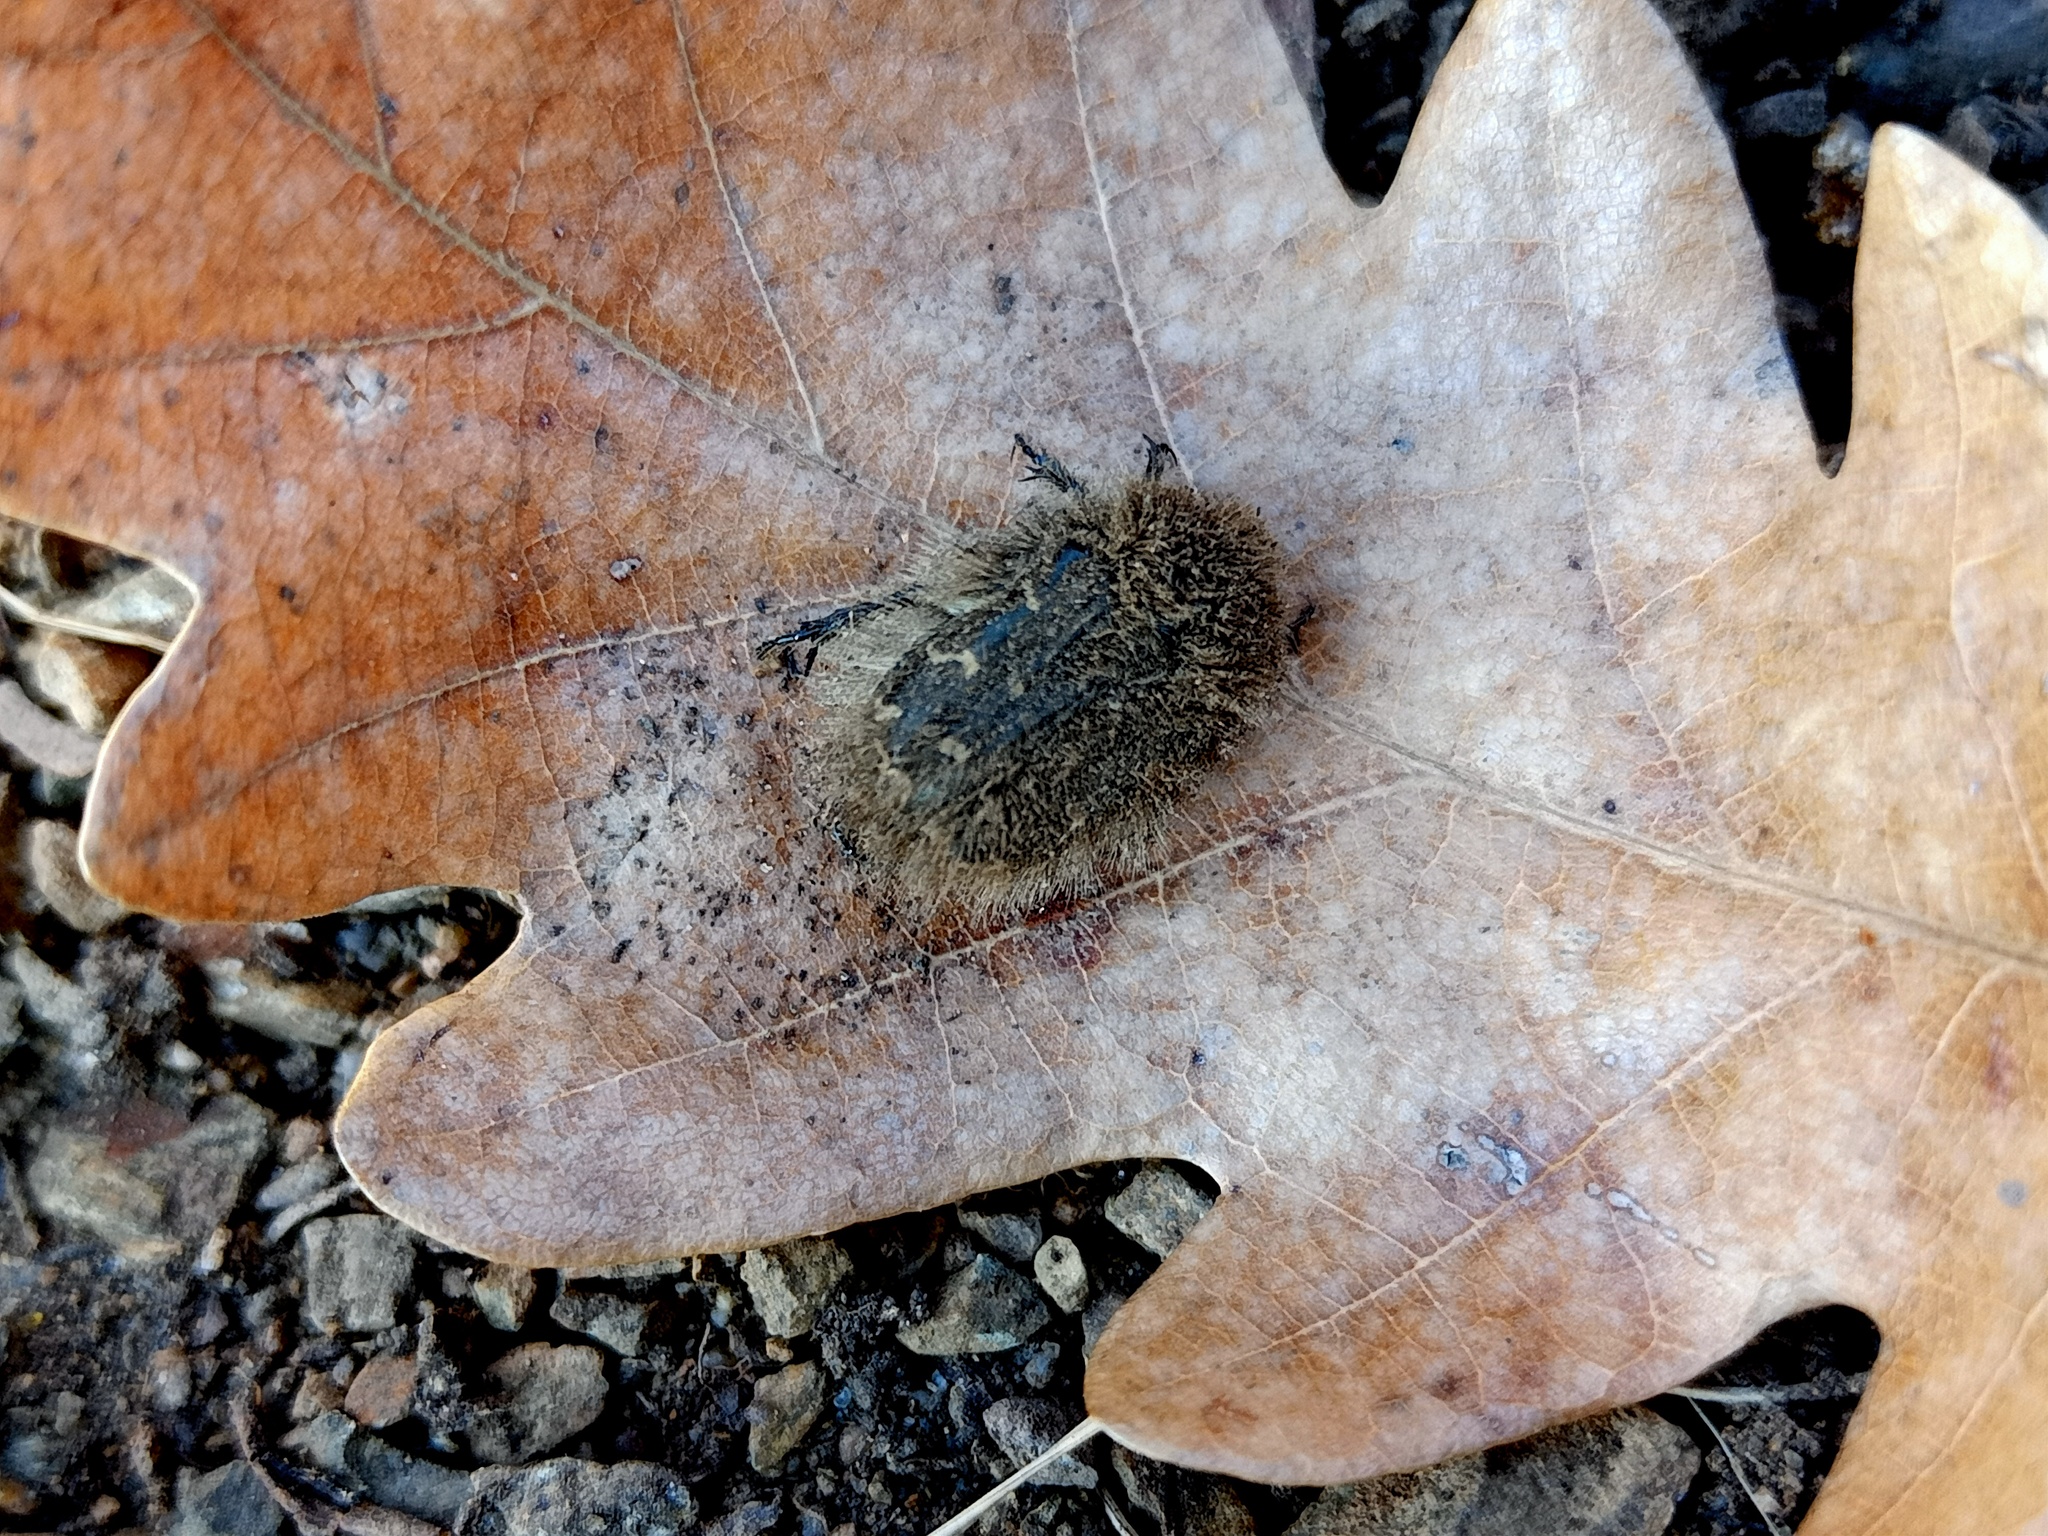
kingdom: Animalia
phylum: Arthropoda
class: Insecta
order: Coleoptera
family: Scarabaeidae
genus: Tropinota
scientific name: Tropinota hirta
